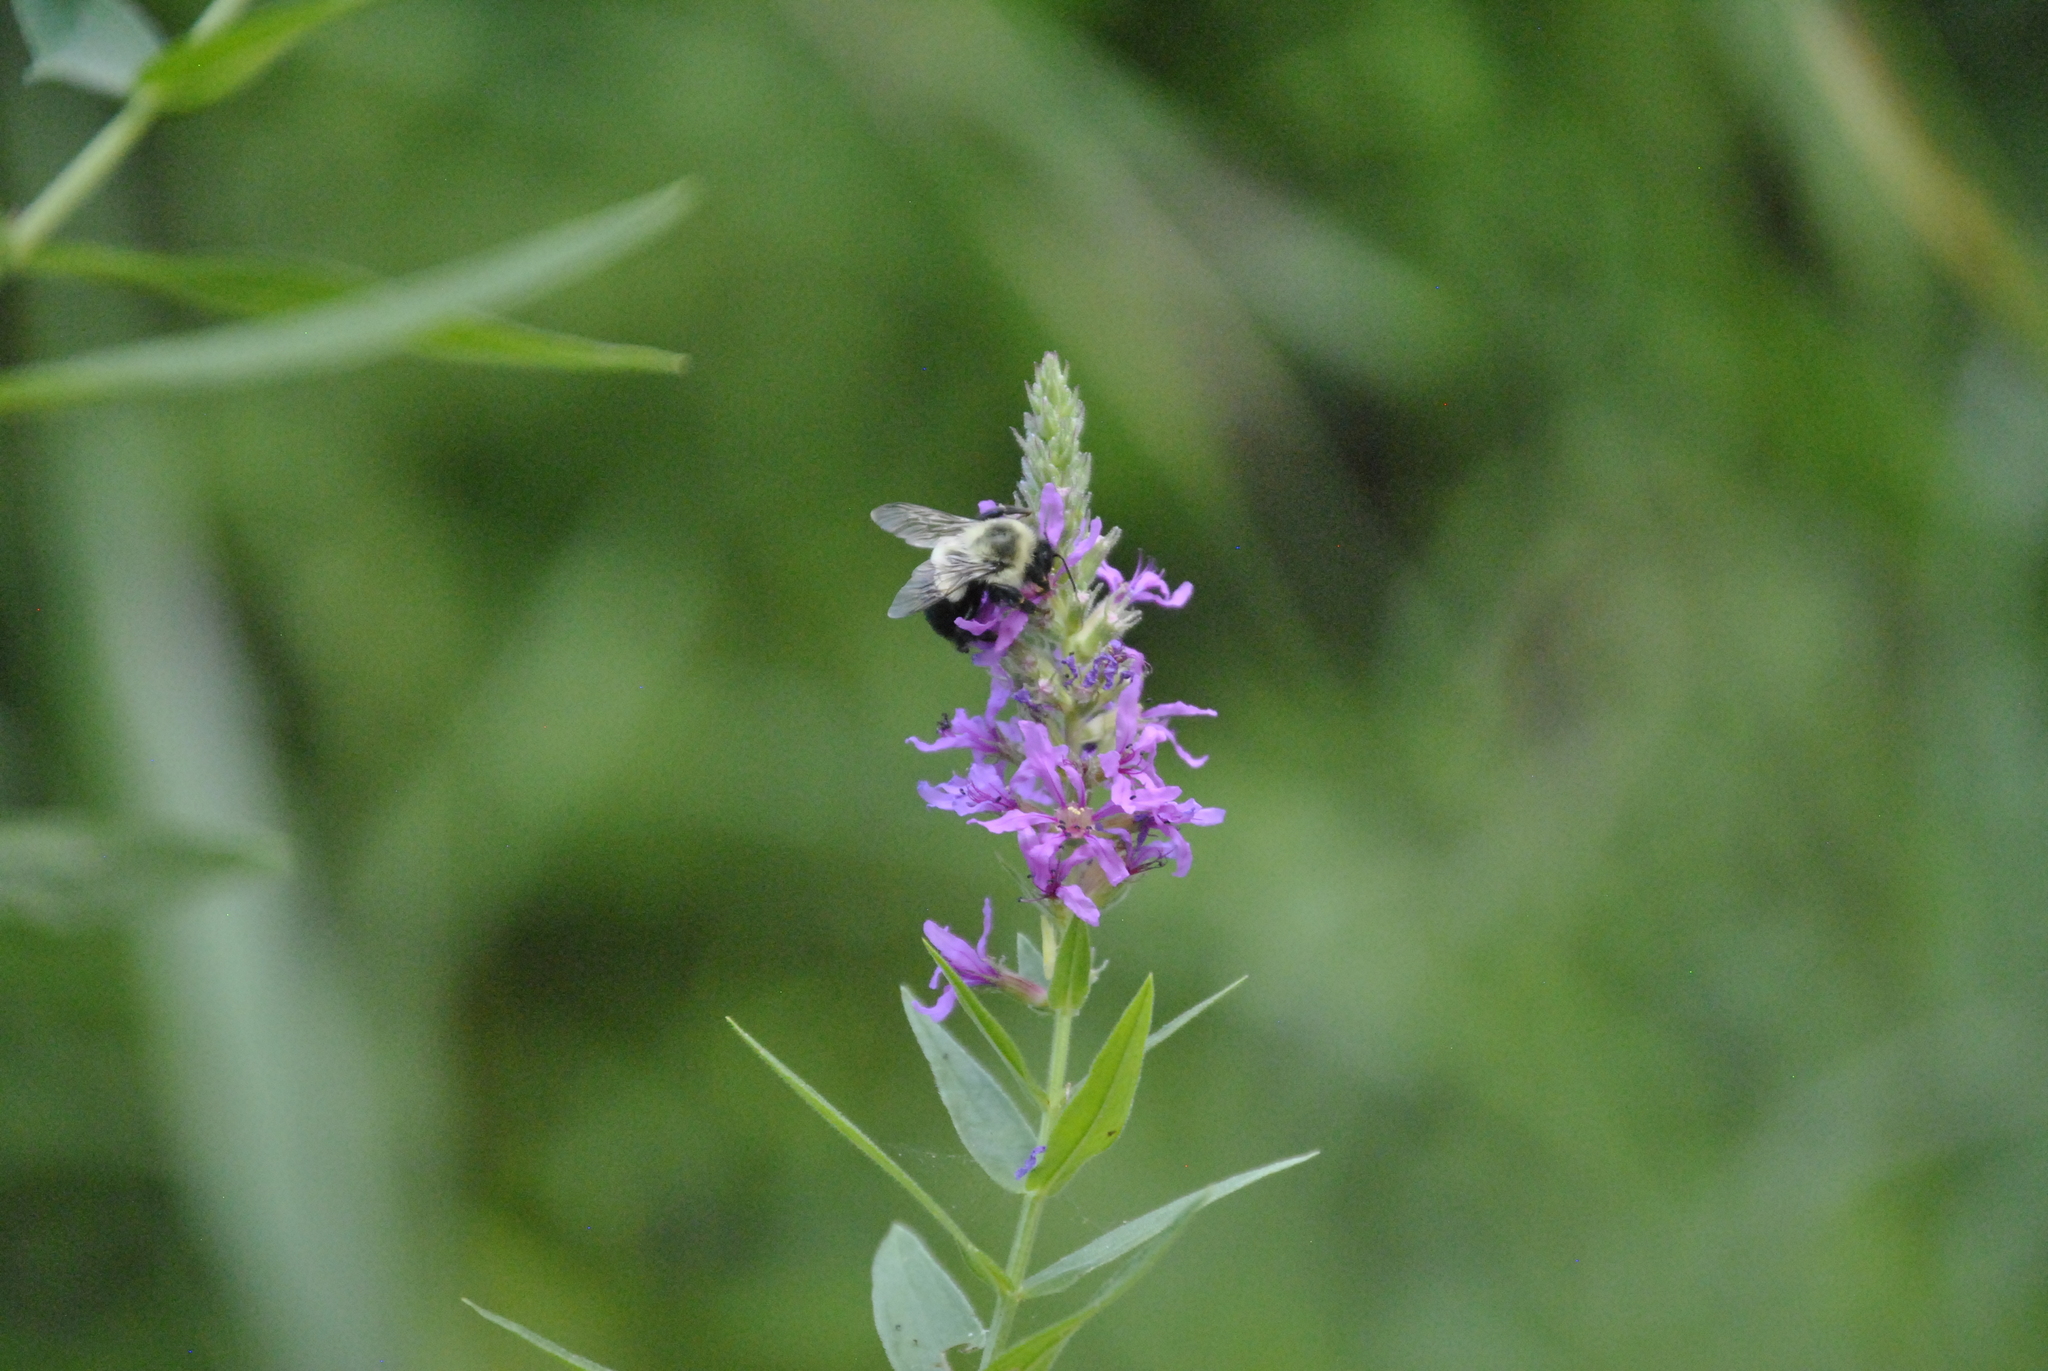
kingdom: Animalia
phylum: Arthropoda
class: Insecta
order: Hymenoptera
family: Apidae
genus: Bombus
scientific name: Bombus impatiens
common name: Common eastern bumble bee
